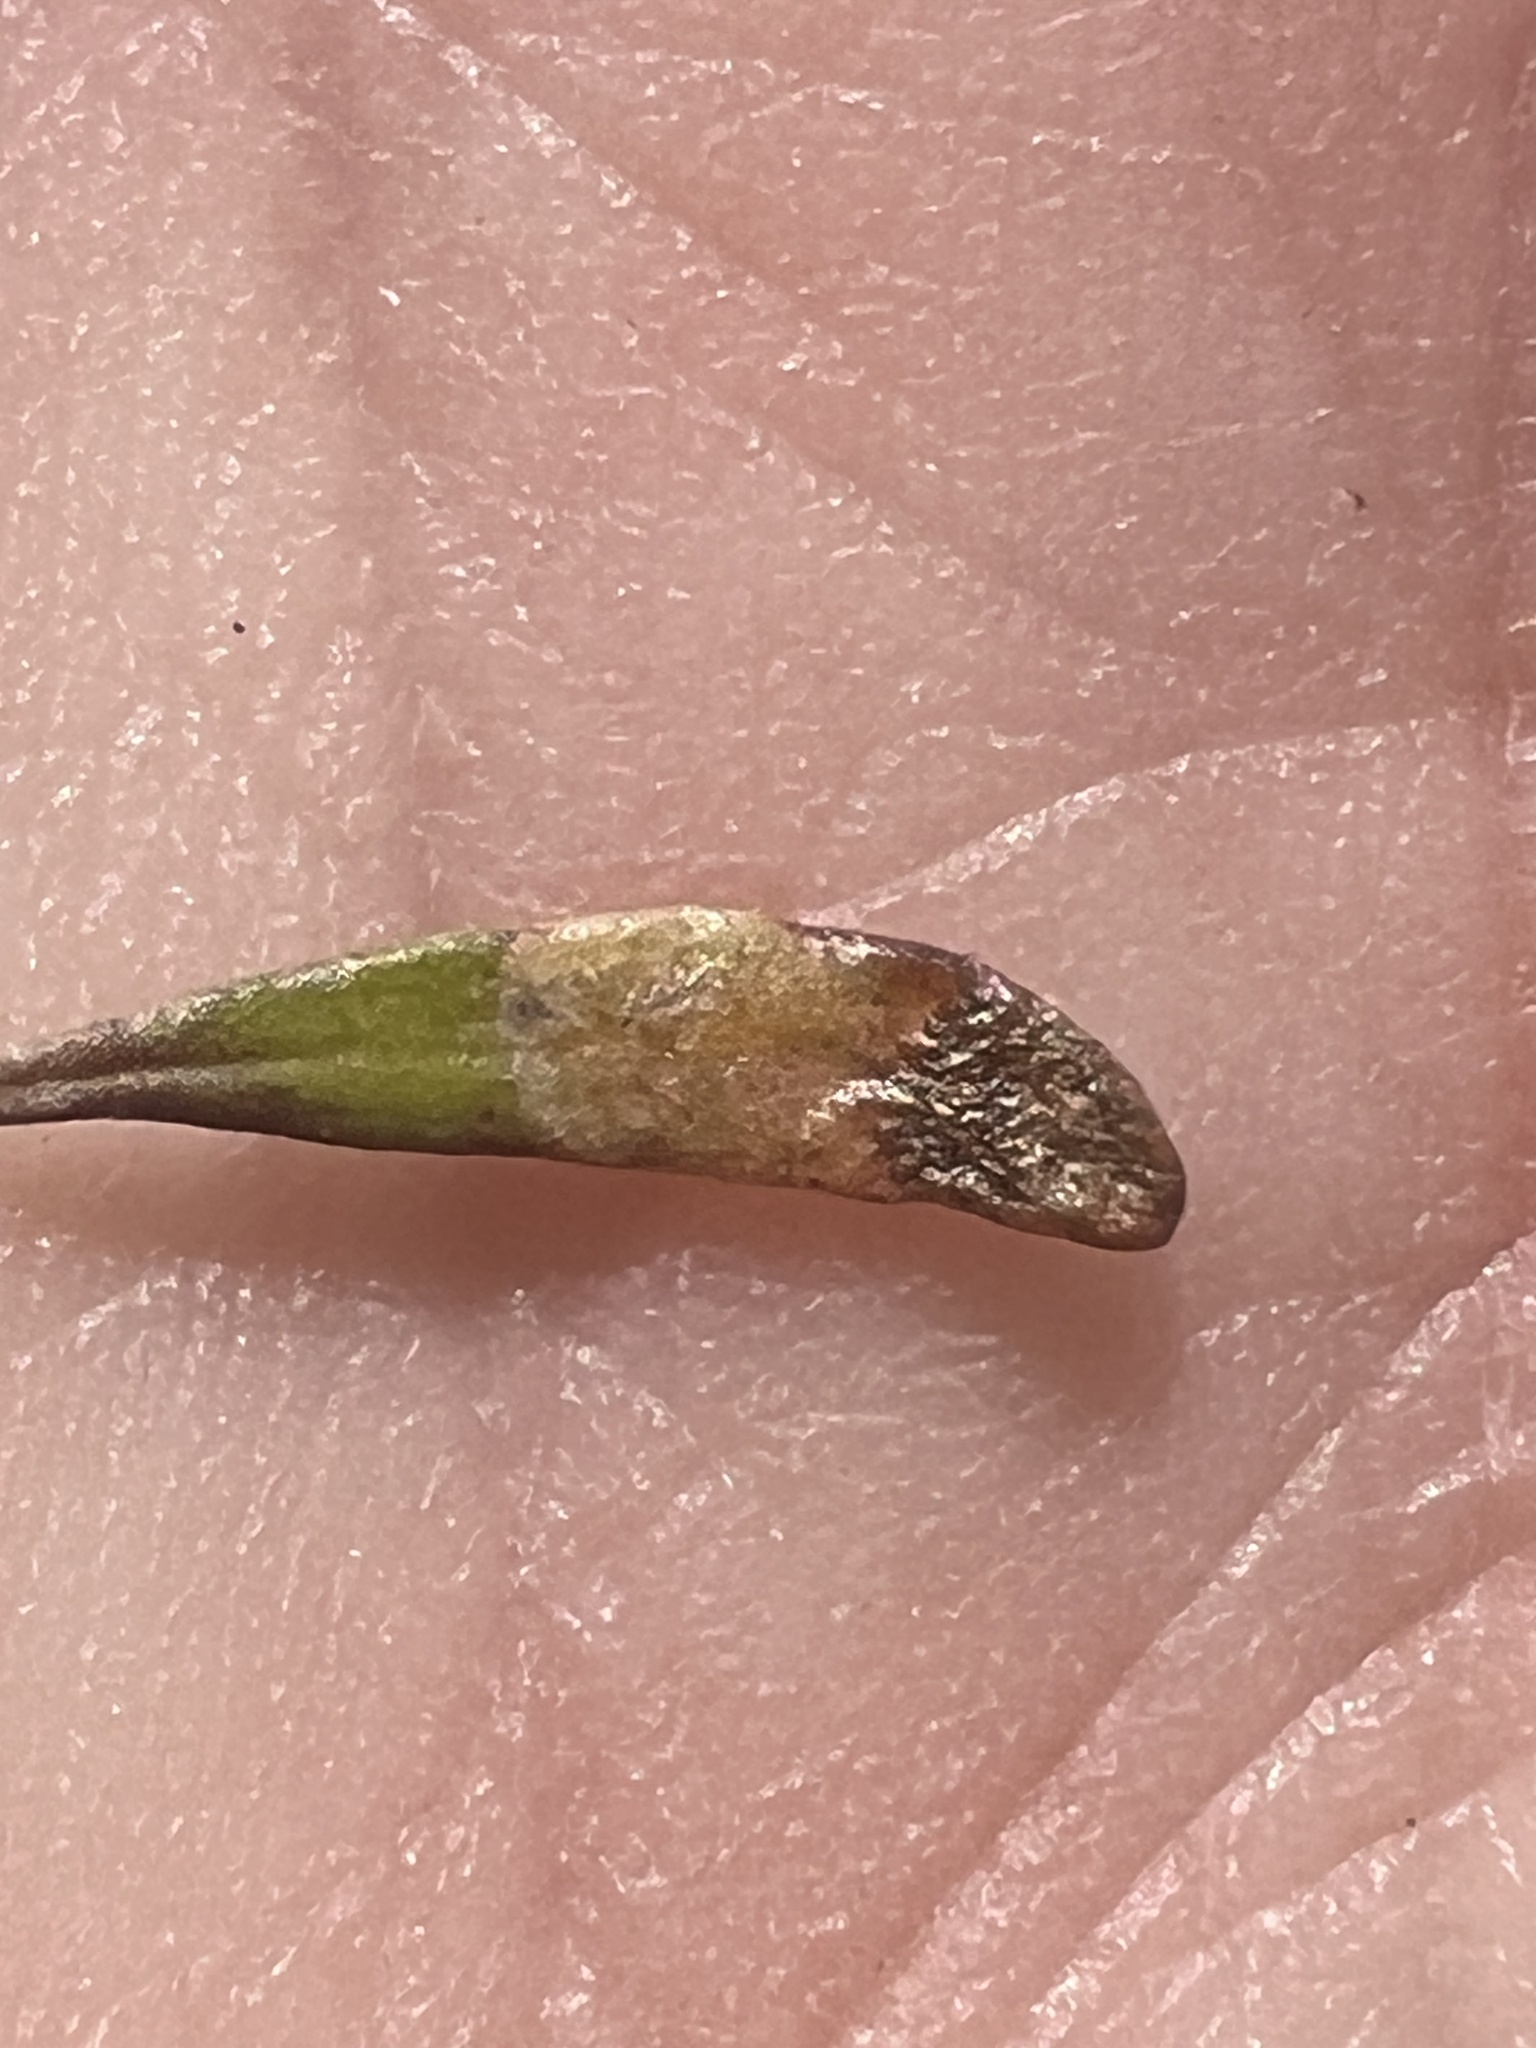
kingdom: Plantae
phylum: Tracheophyta
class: Magnoliopsida
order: Malvales
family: Malvaceae
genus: Plagianthus
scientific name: Plagianthus divaricatus
